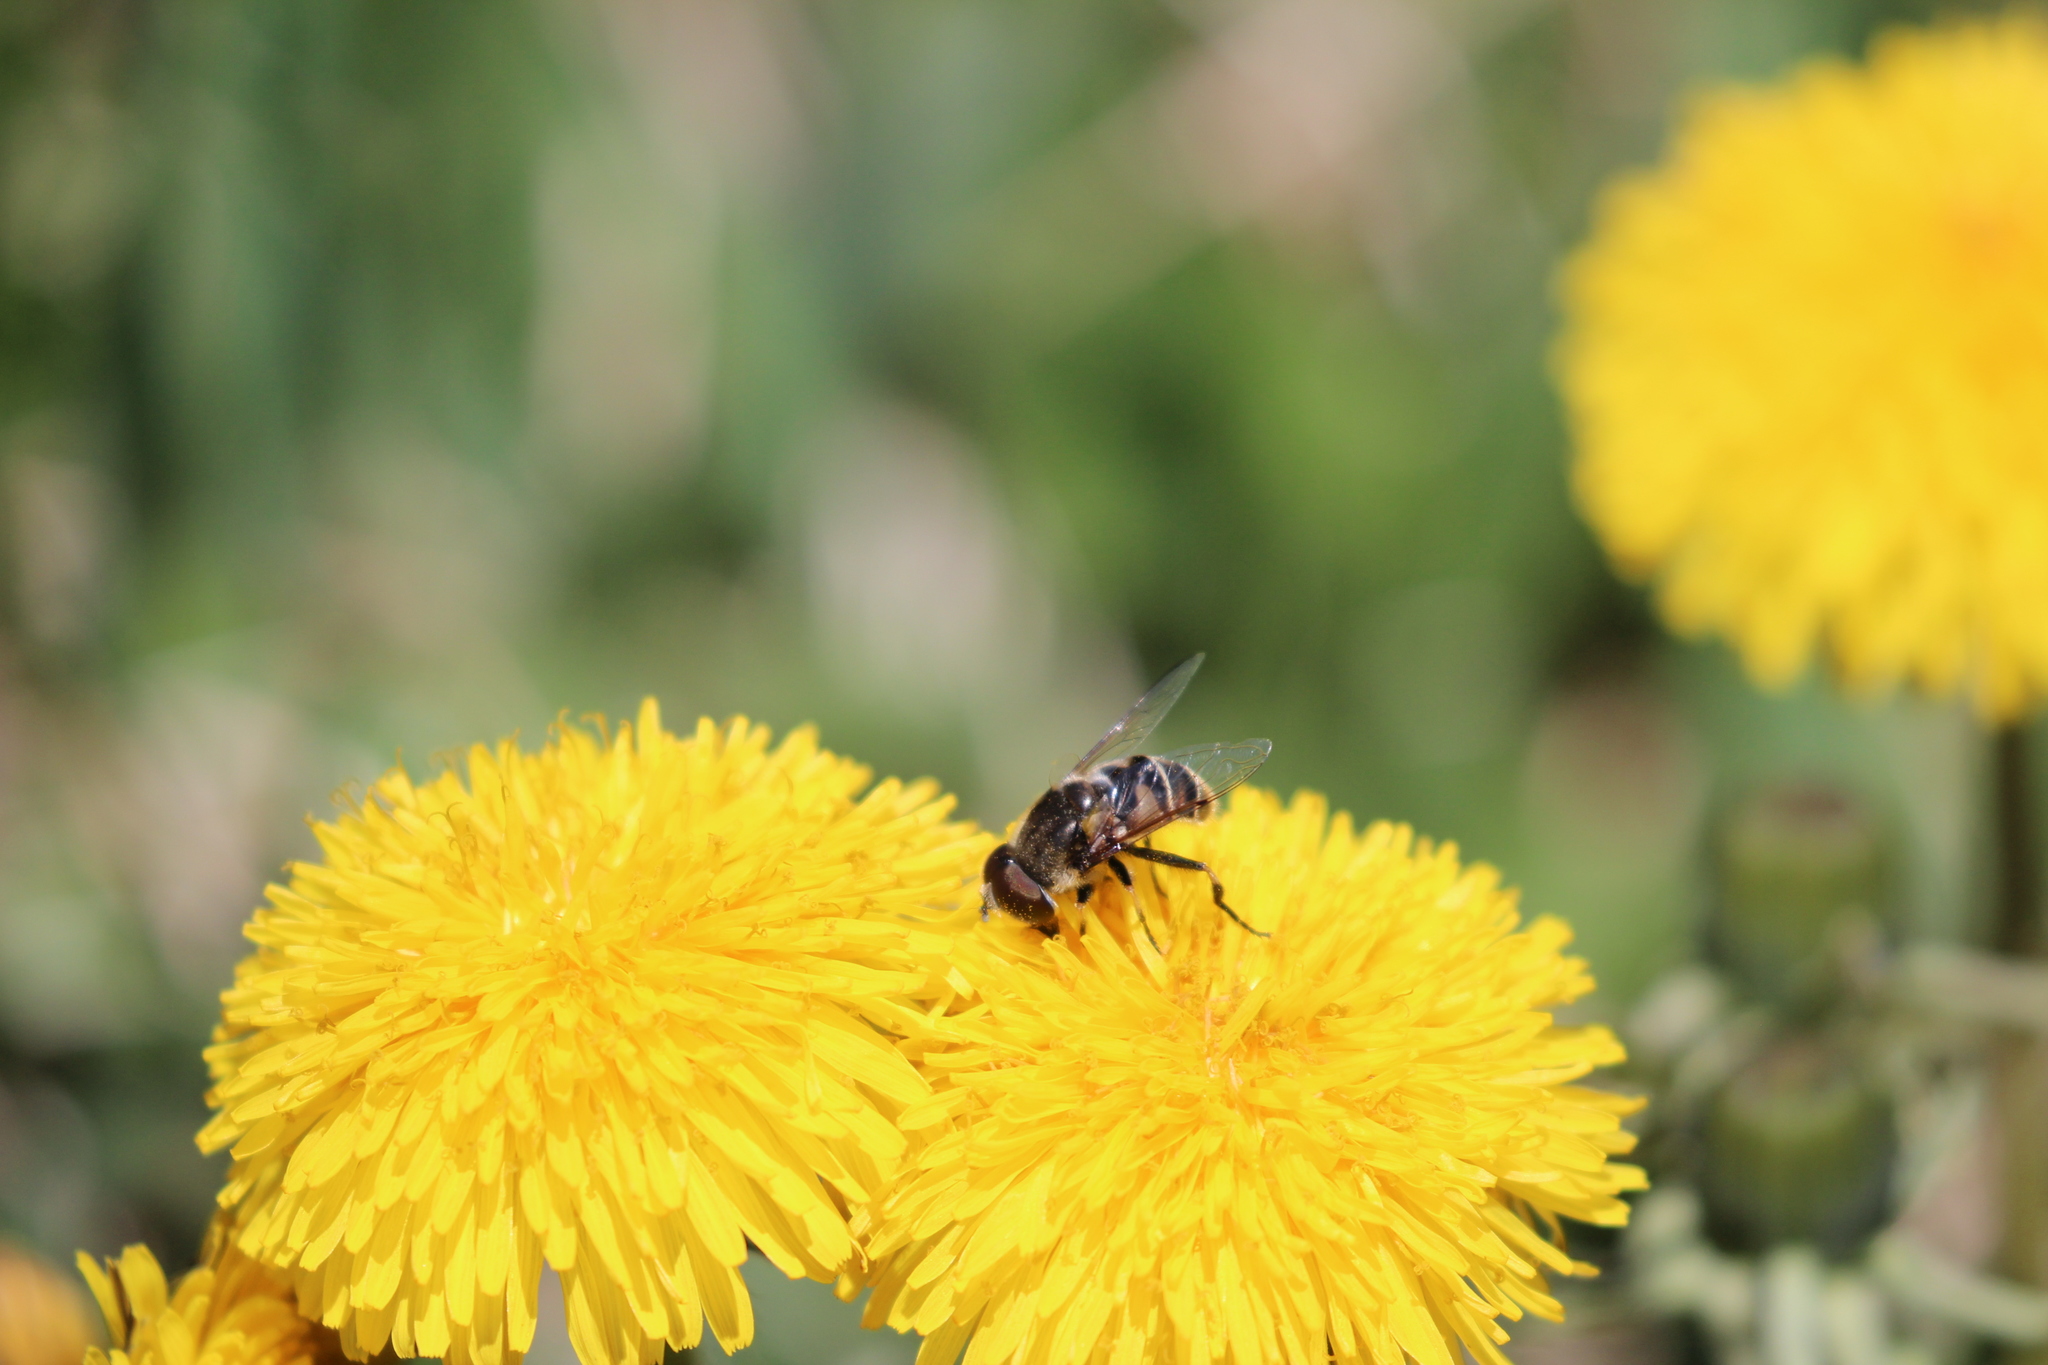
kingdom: Animalia
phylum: Arthropoda
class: Insecta
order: Diptera
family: Syrphidae
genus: Eristalis
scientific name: Eristalis dimidiata
